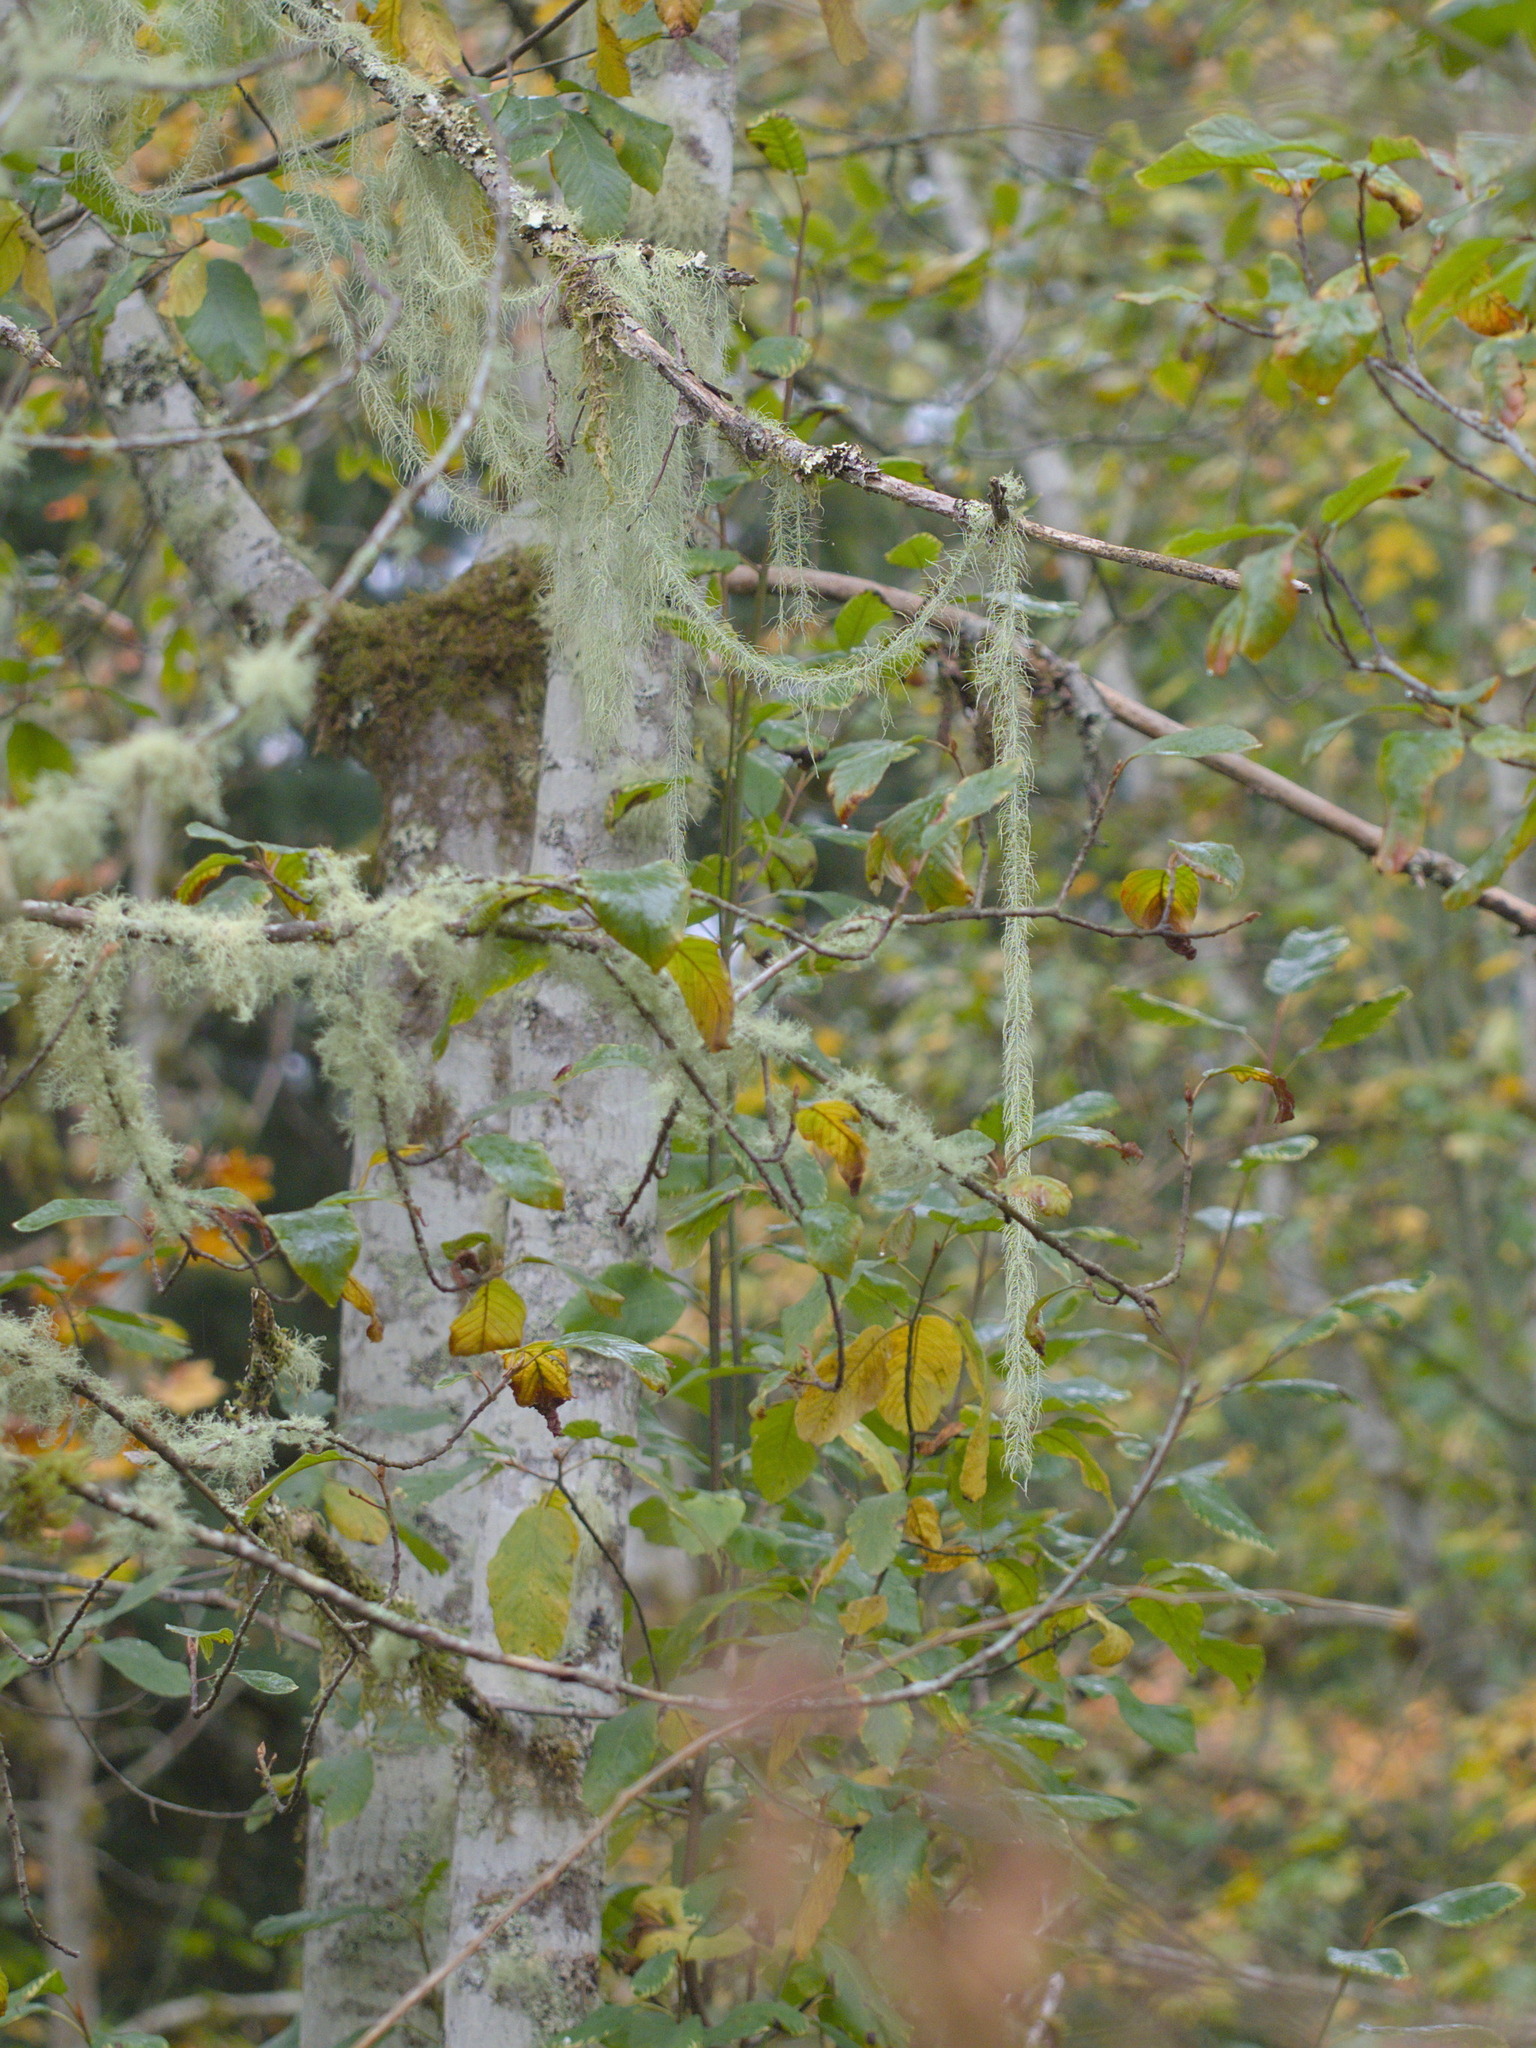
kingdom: Fungi
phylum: Ascomycota
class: Lecanoromycetes
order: Lecanorales
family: Parmeliaceae
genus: Dolichousnea
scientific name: Dolichousnea longissima
